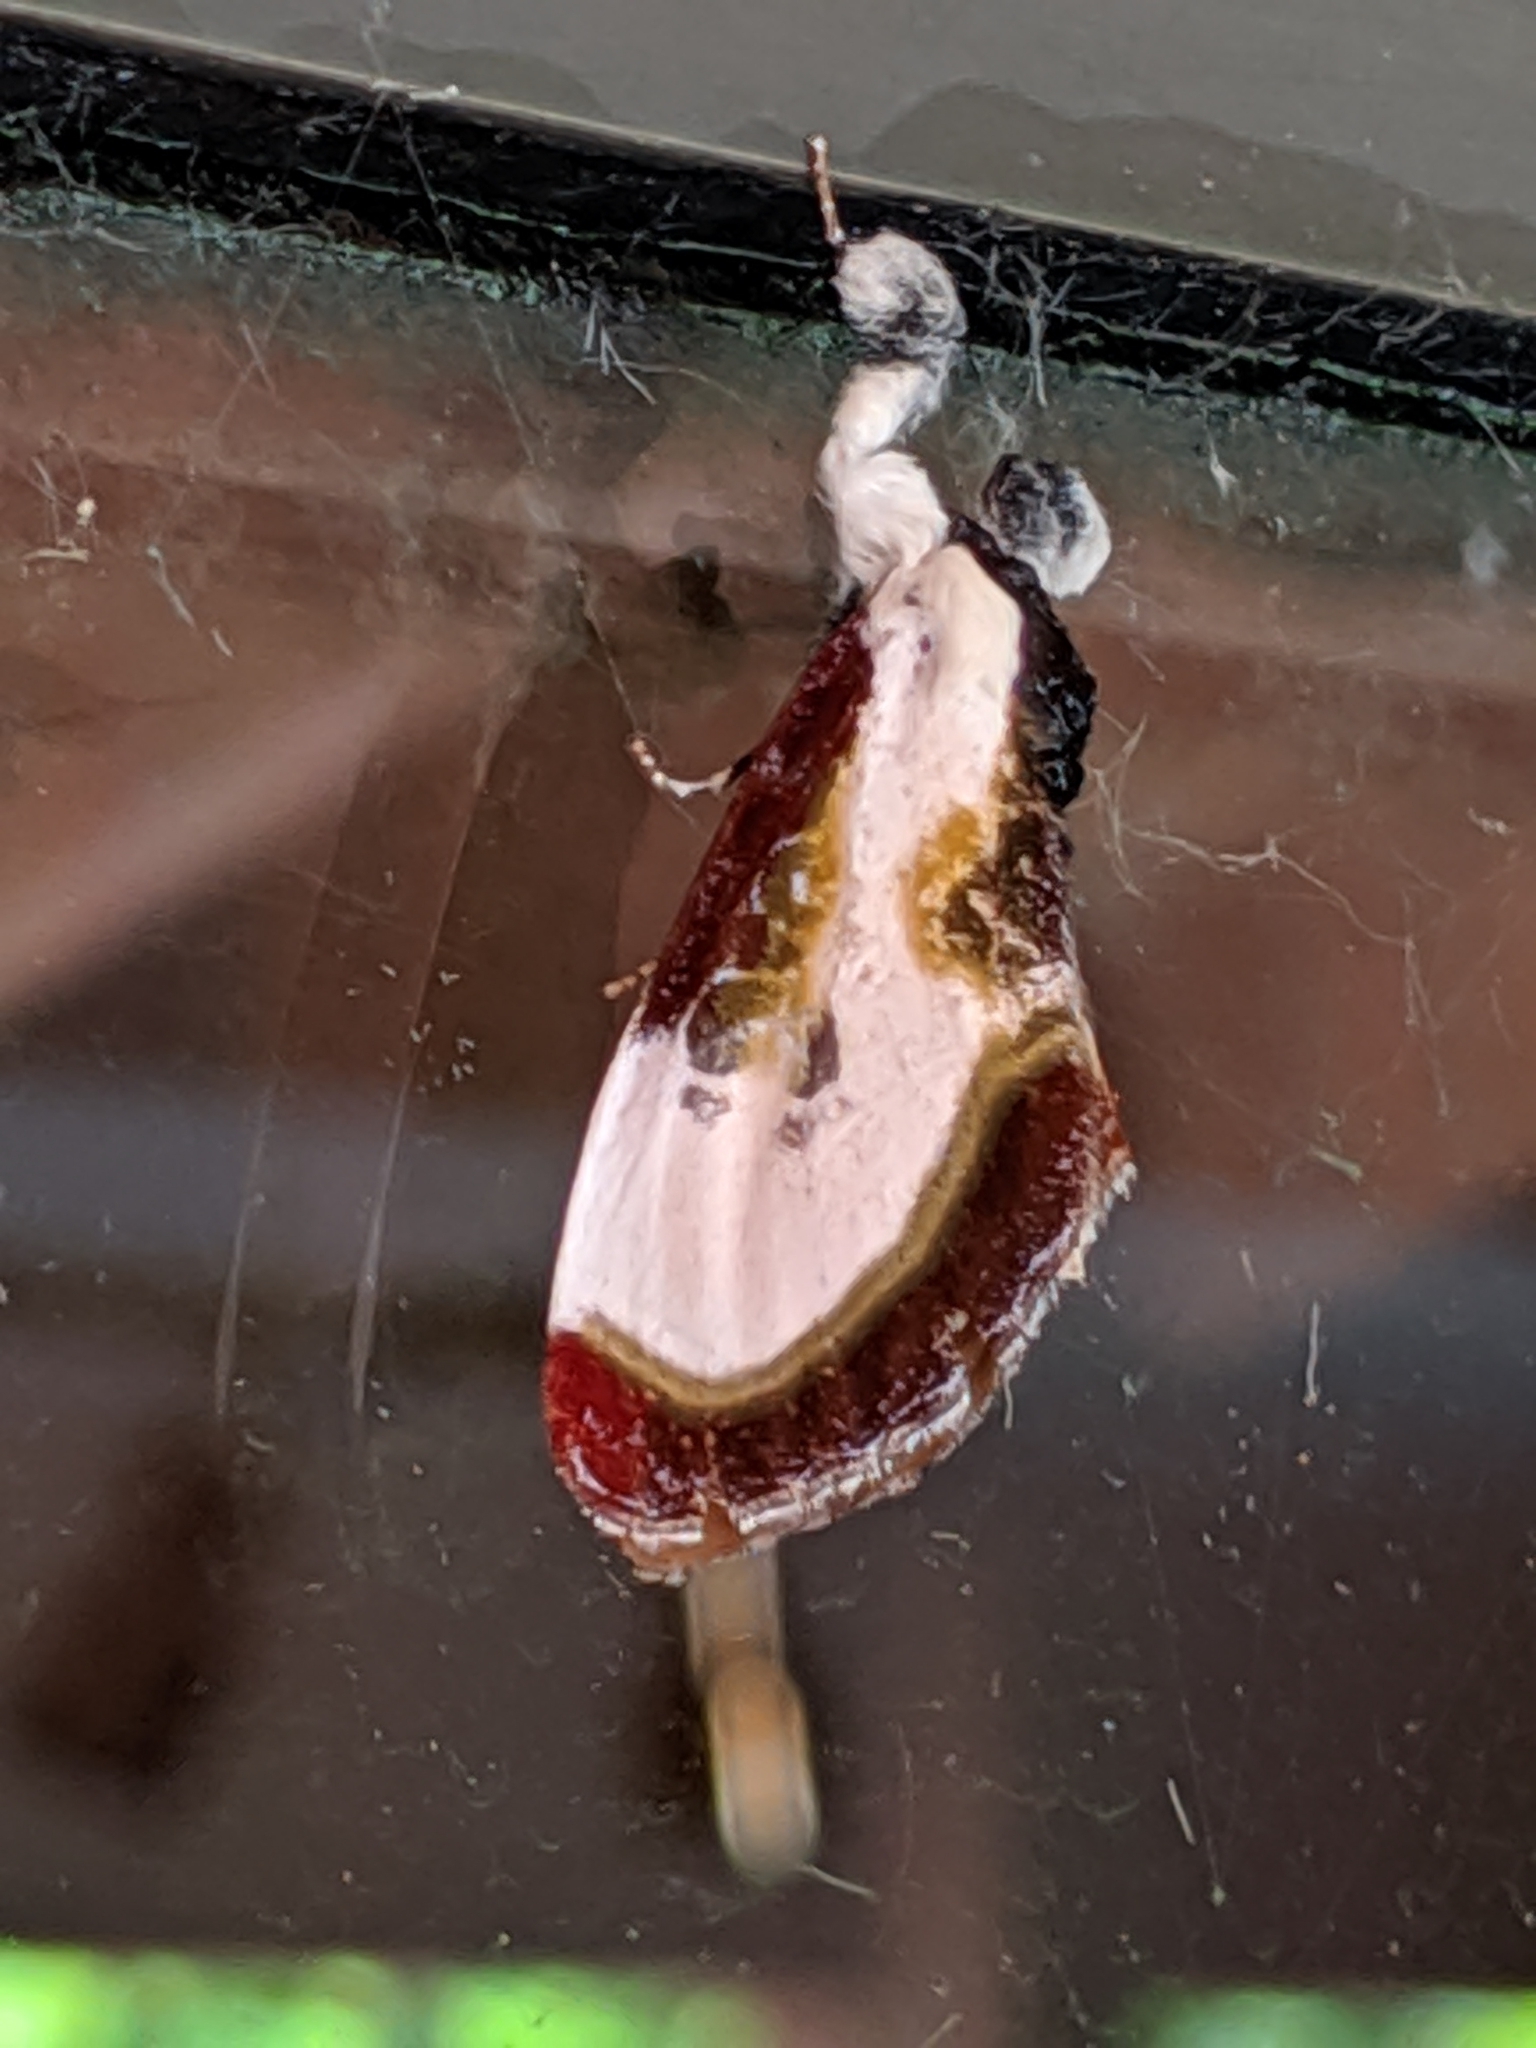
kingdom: Animalia
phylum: Arthropoda
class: Insecta
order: Lepidoptera
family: Noctuidae
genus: Eudryas
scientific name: Eudryas grata
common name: Beautiful wood-nymph
